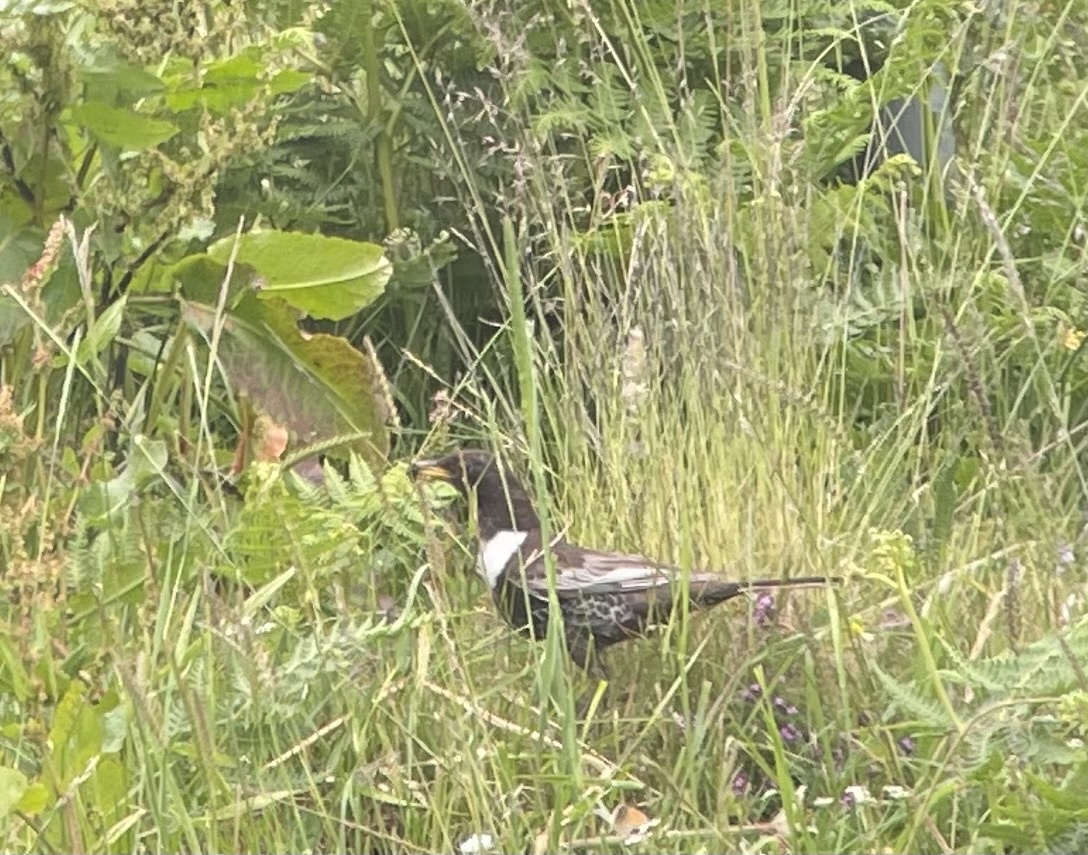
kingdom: Animalia
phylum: Chordata
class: Aves
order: Passeriformes
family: Turdidae
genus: Turdus
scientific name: Turdus torquatus
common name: Ring ouzel
